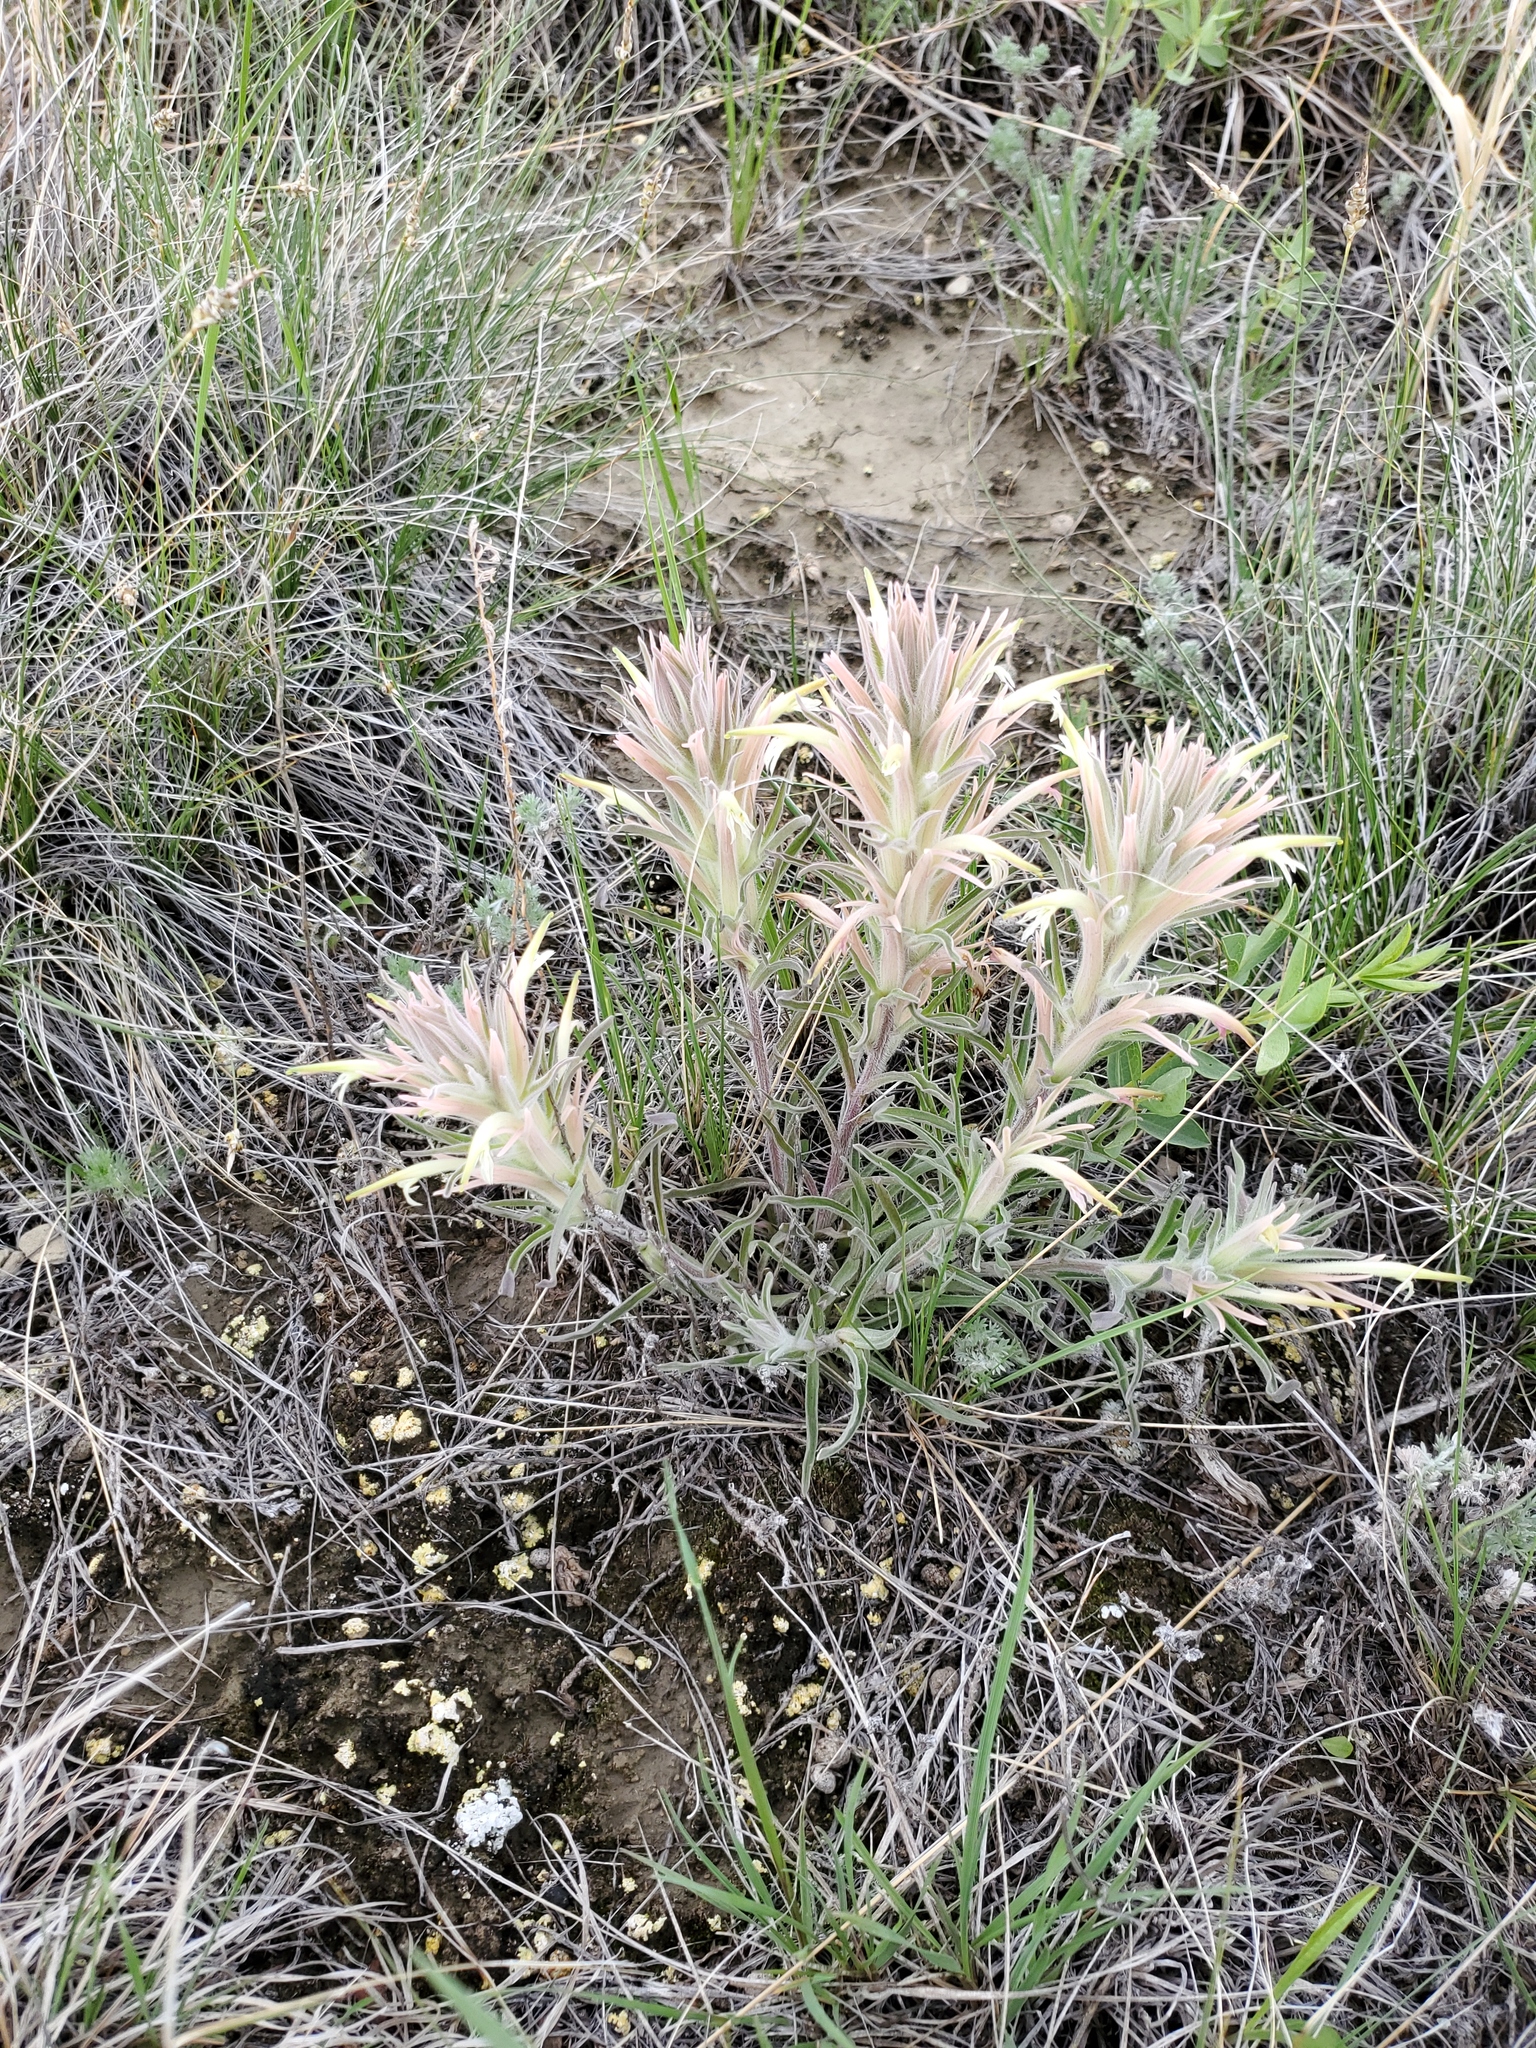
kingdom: Plantae
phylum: Tracheophyta
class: Magnoliopsida
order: Lamiales
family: Orobanchaceae
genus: Castilleja
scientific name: Castilleja sessiliflora
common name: Downy paintbrush
